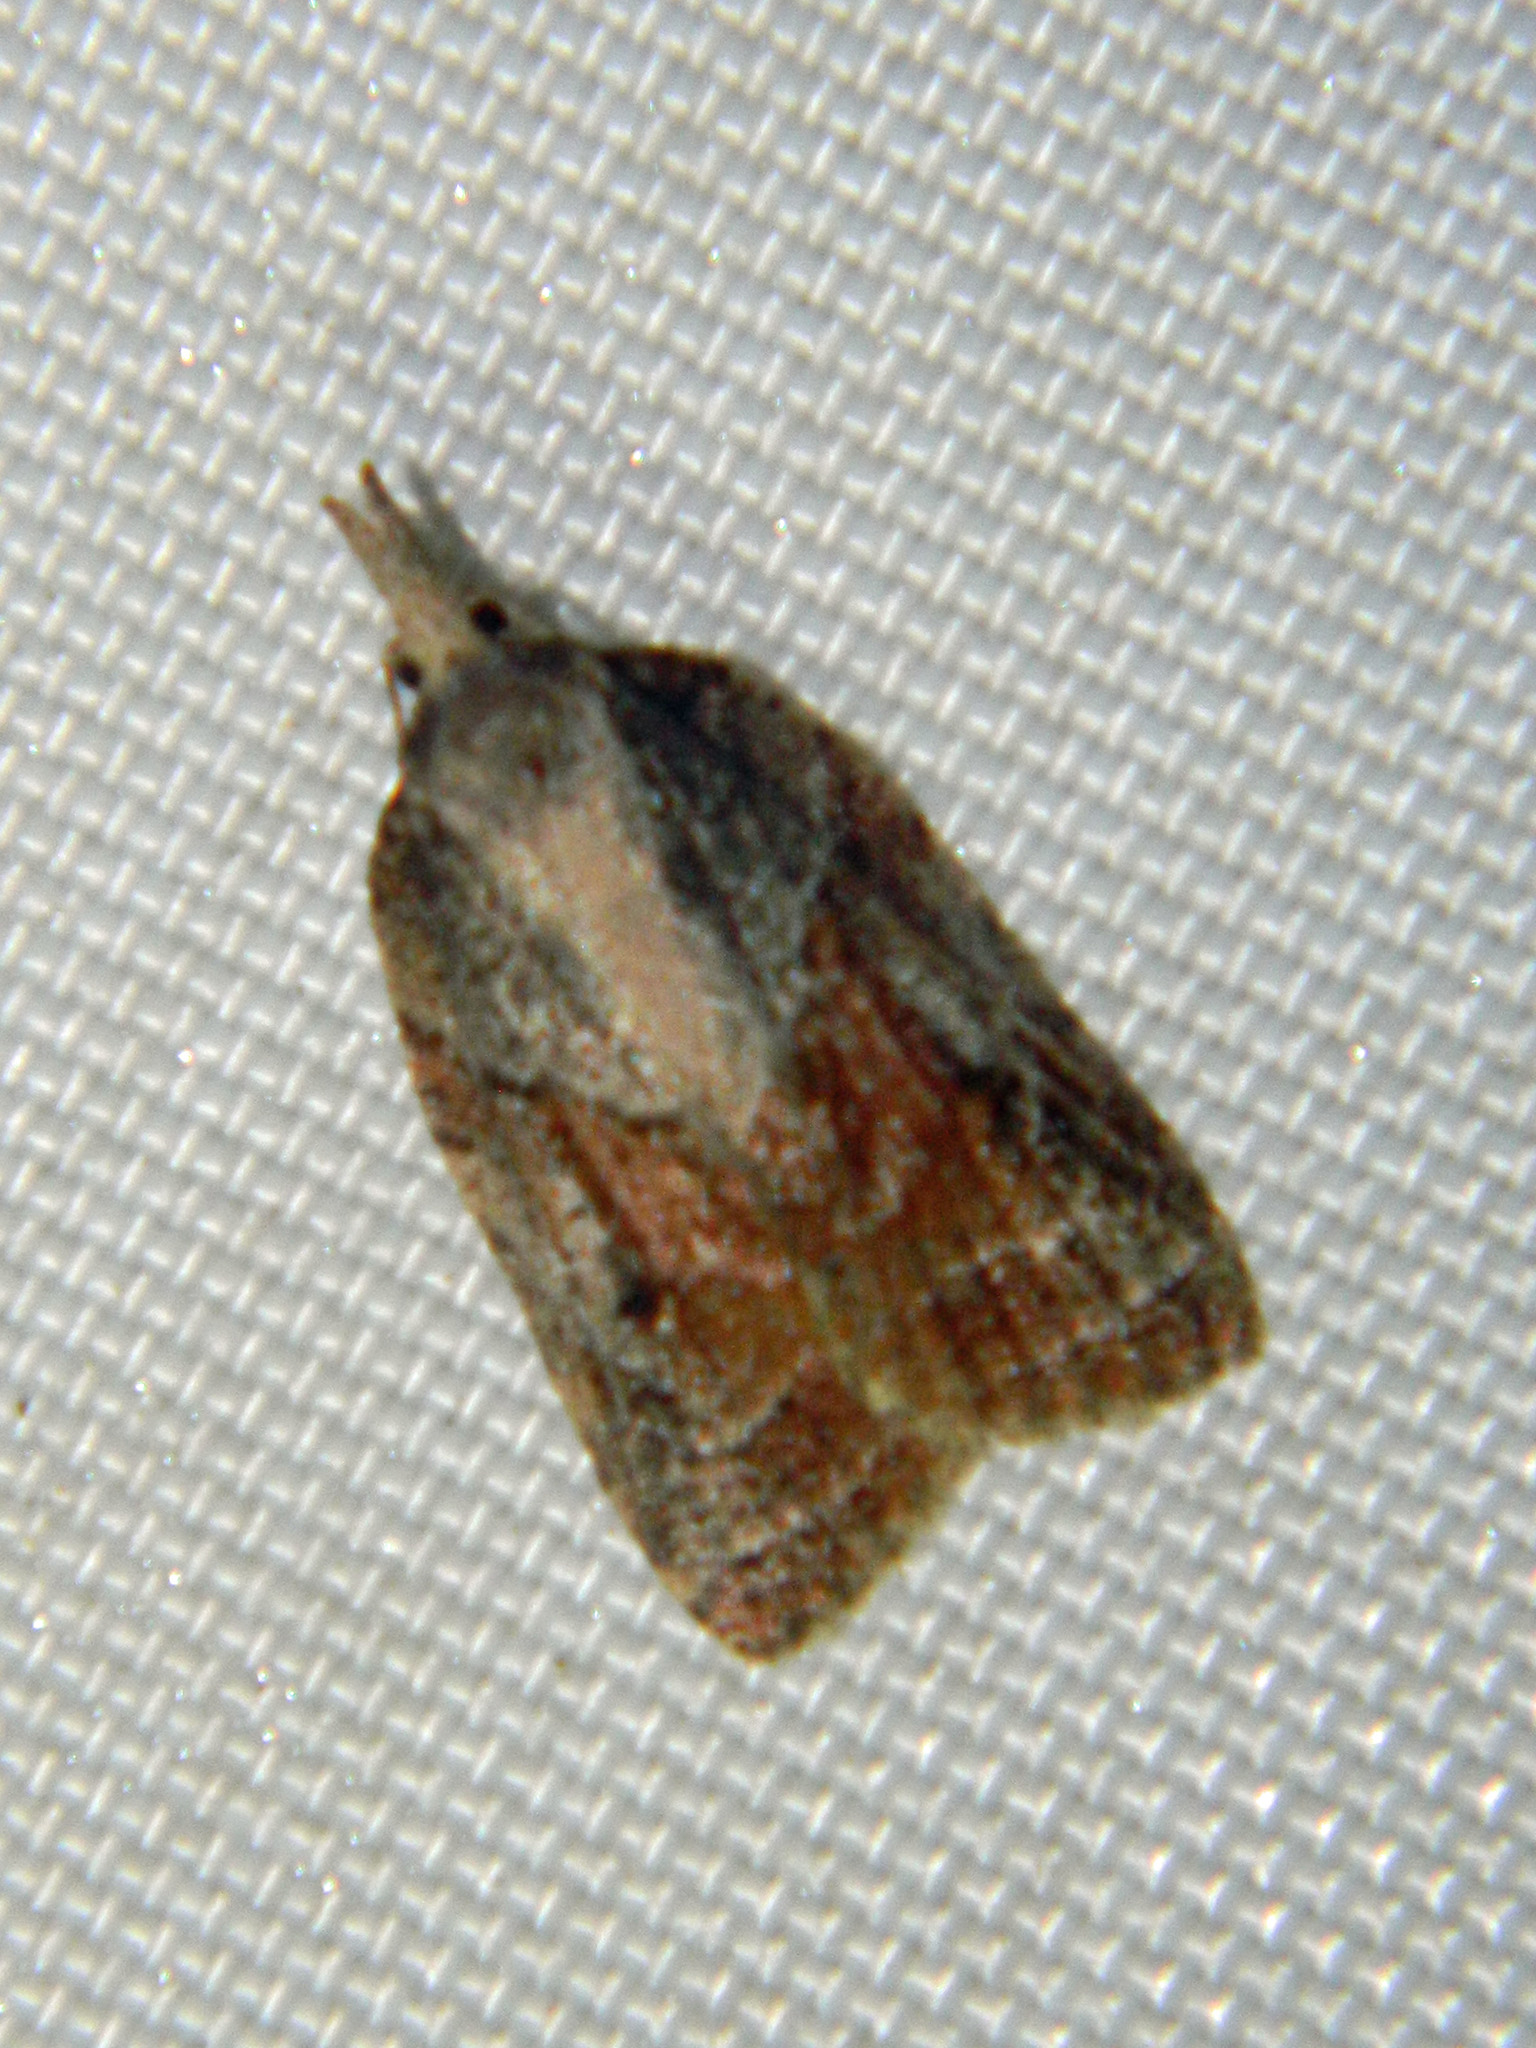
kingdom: Animalia
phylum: Arthropoda
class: Insecta
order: Lepidoptera
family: Tortricidae
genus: Platynota
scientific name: Platynota idaeusalis
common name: Tufted apple bud moth
